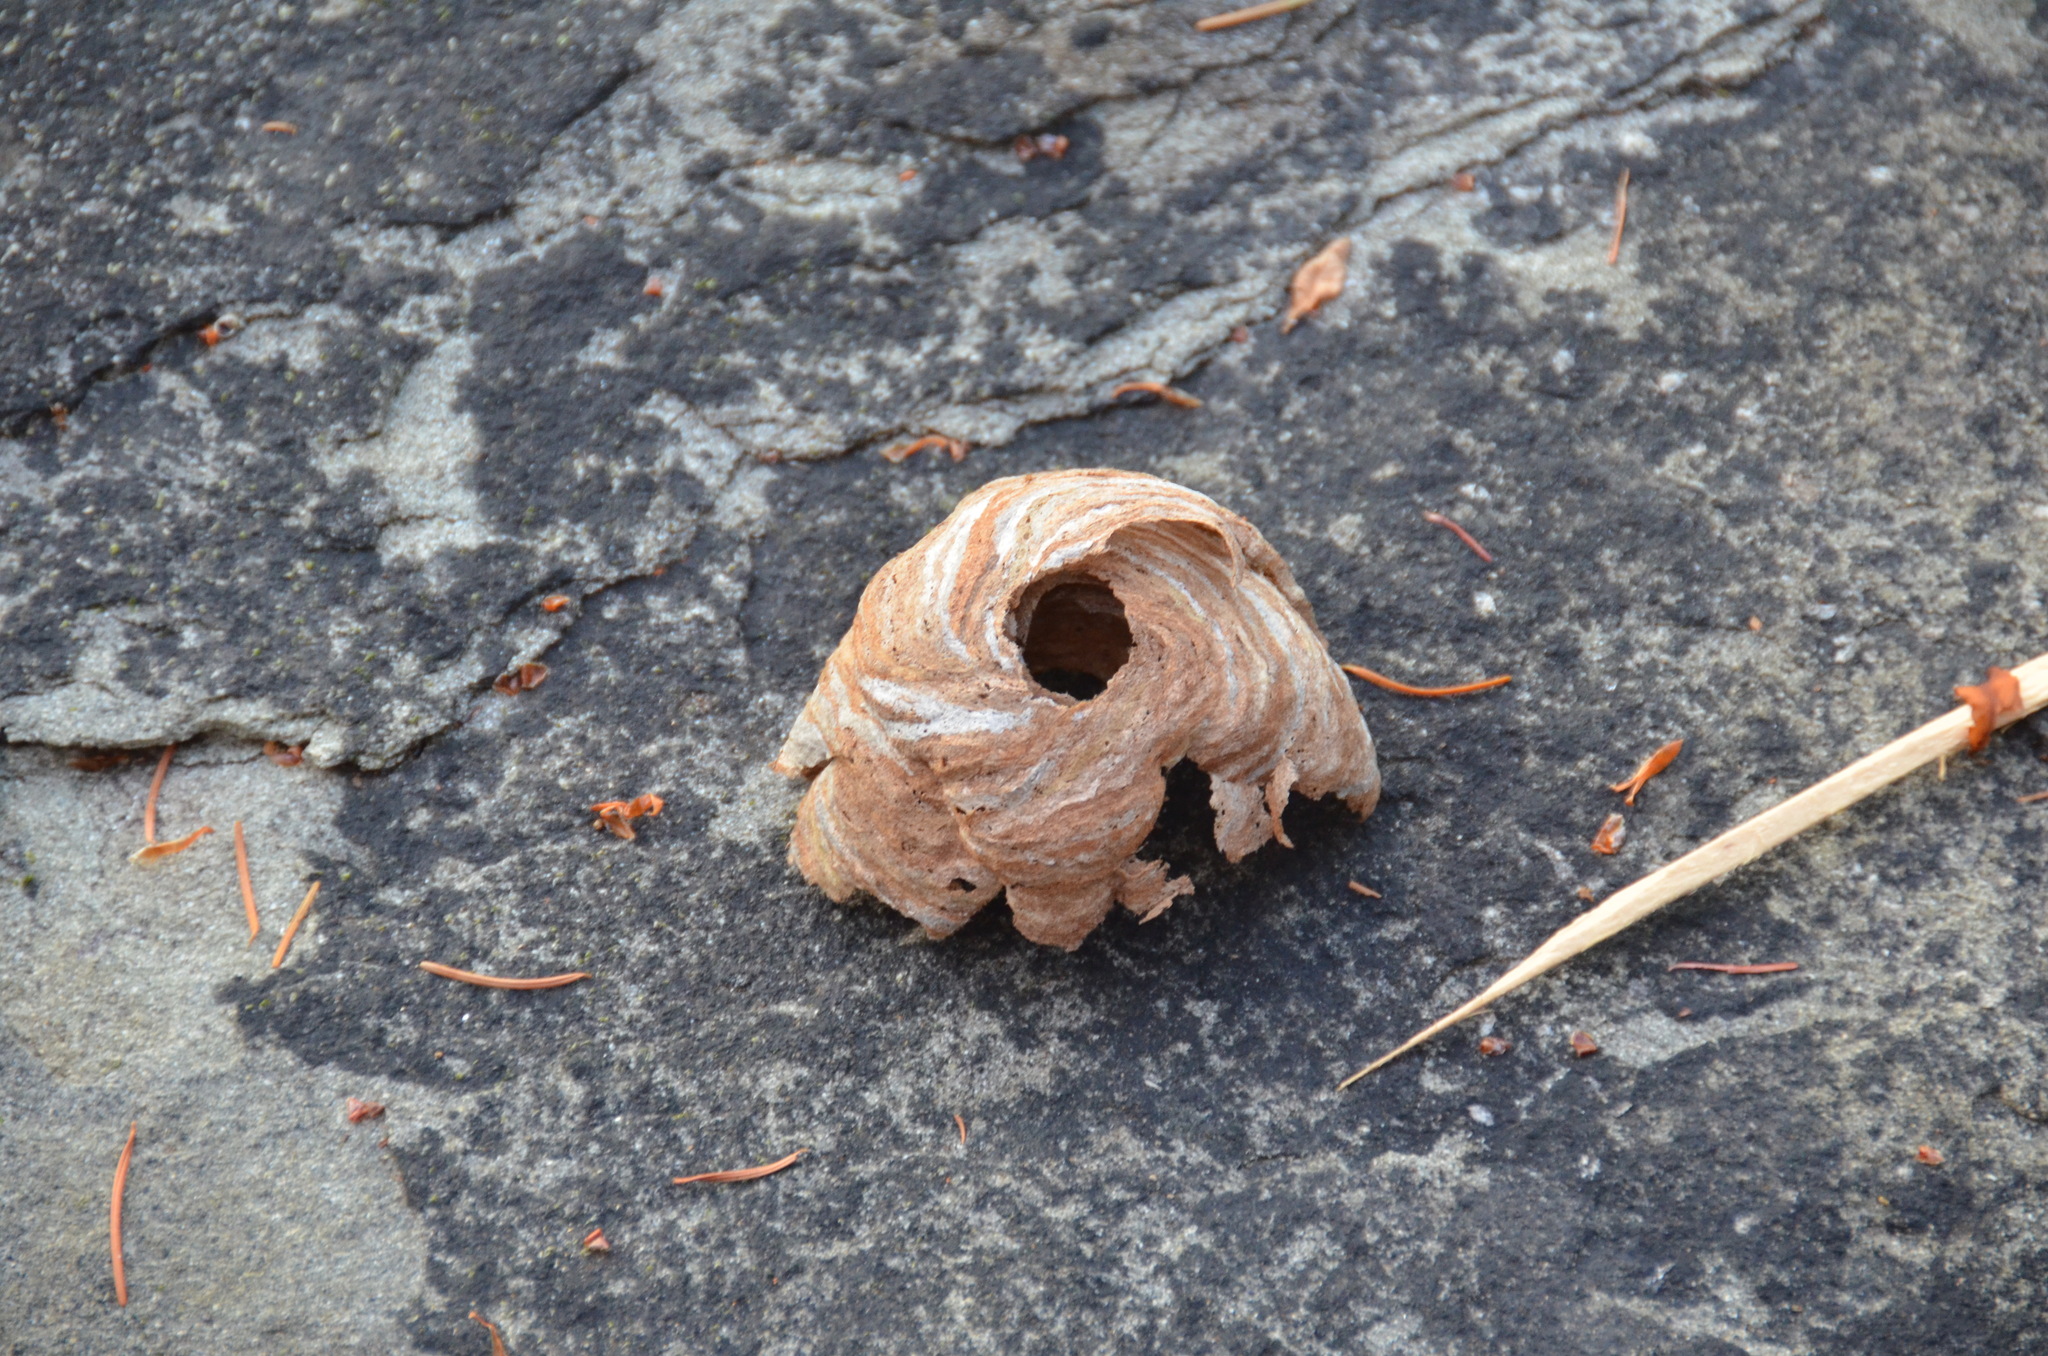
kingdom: Animalia
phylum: Arthropoda
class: Insecta
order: Hymenoptera
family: Vespidae
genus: Dolichovespula
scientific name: Dolichovespula maculata
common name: Bald-faced hornet
